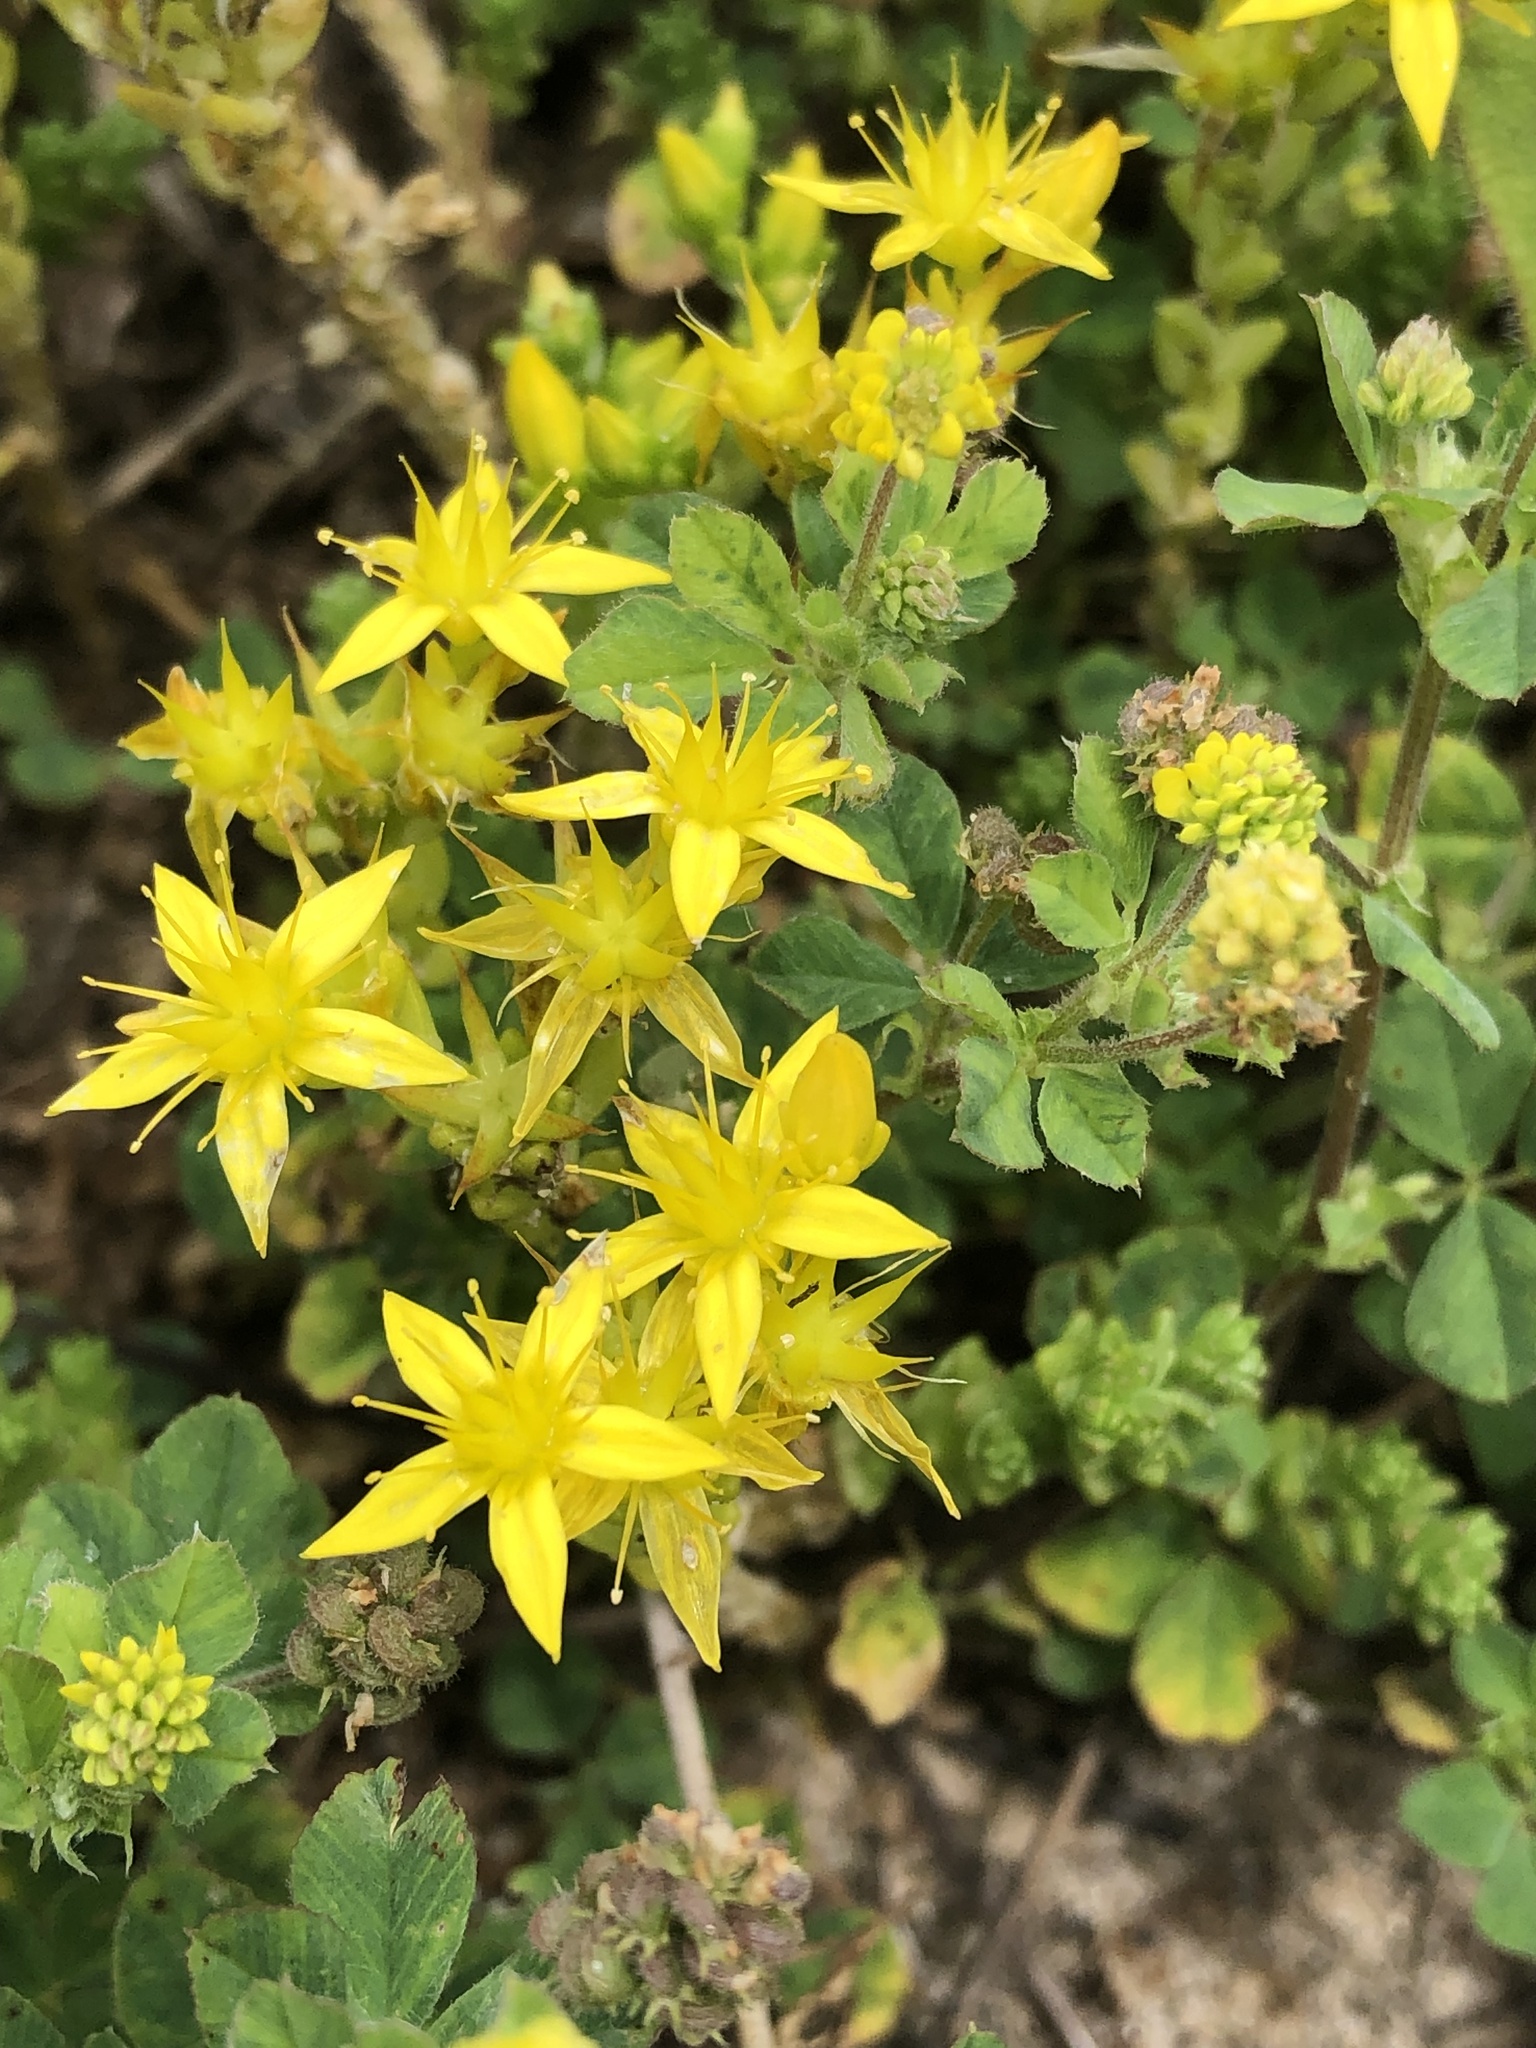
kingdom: Plantae
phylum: Tracheophyta
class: Magnoliopsida
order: Saxifragales
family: Crassulaceae
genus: Sedum
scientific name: Sedum acre
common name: Biting stonecrop
